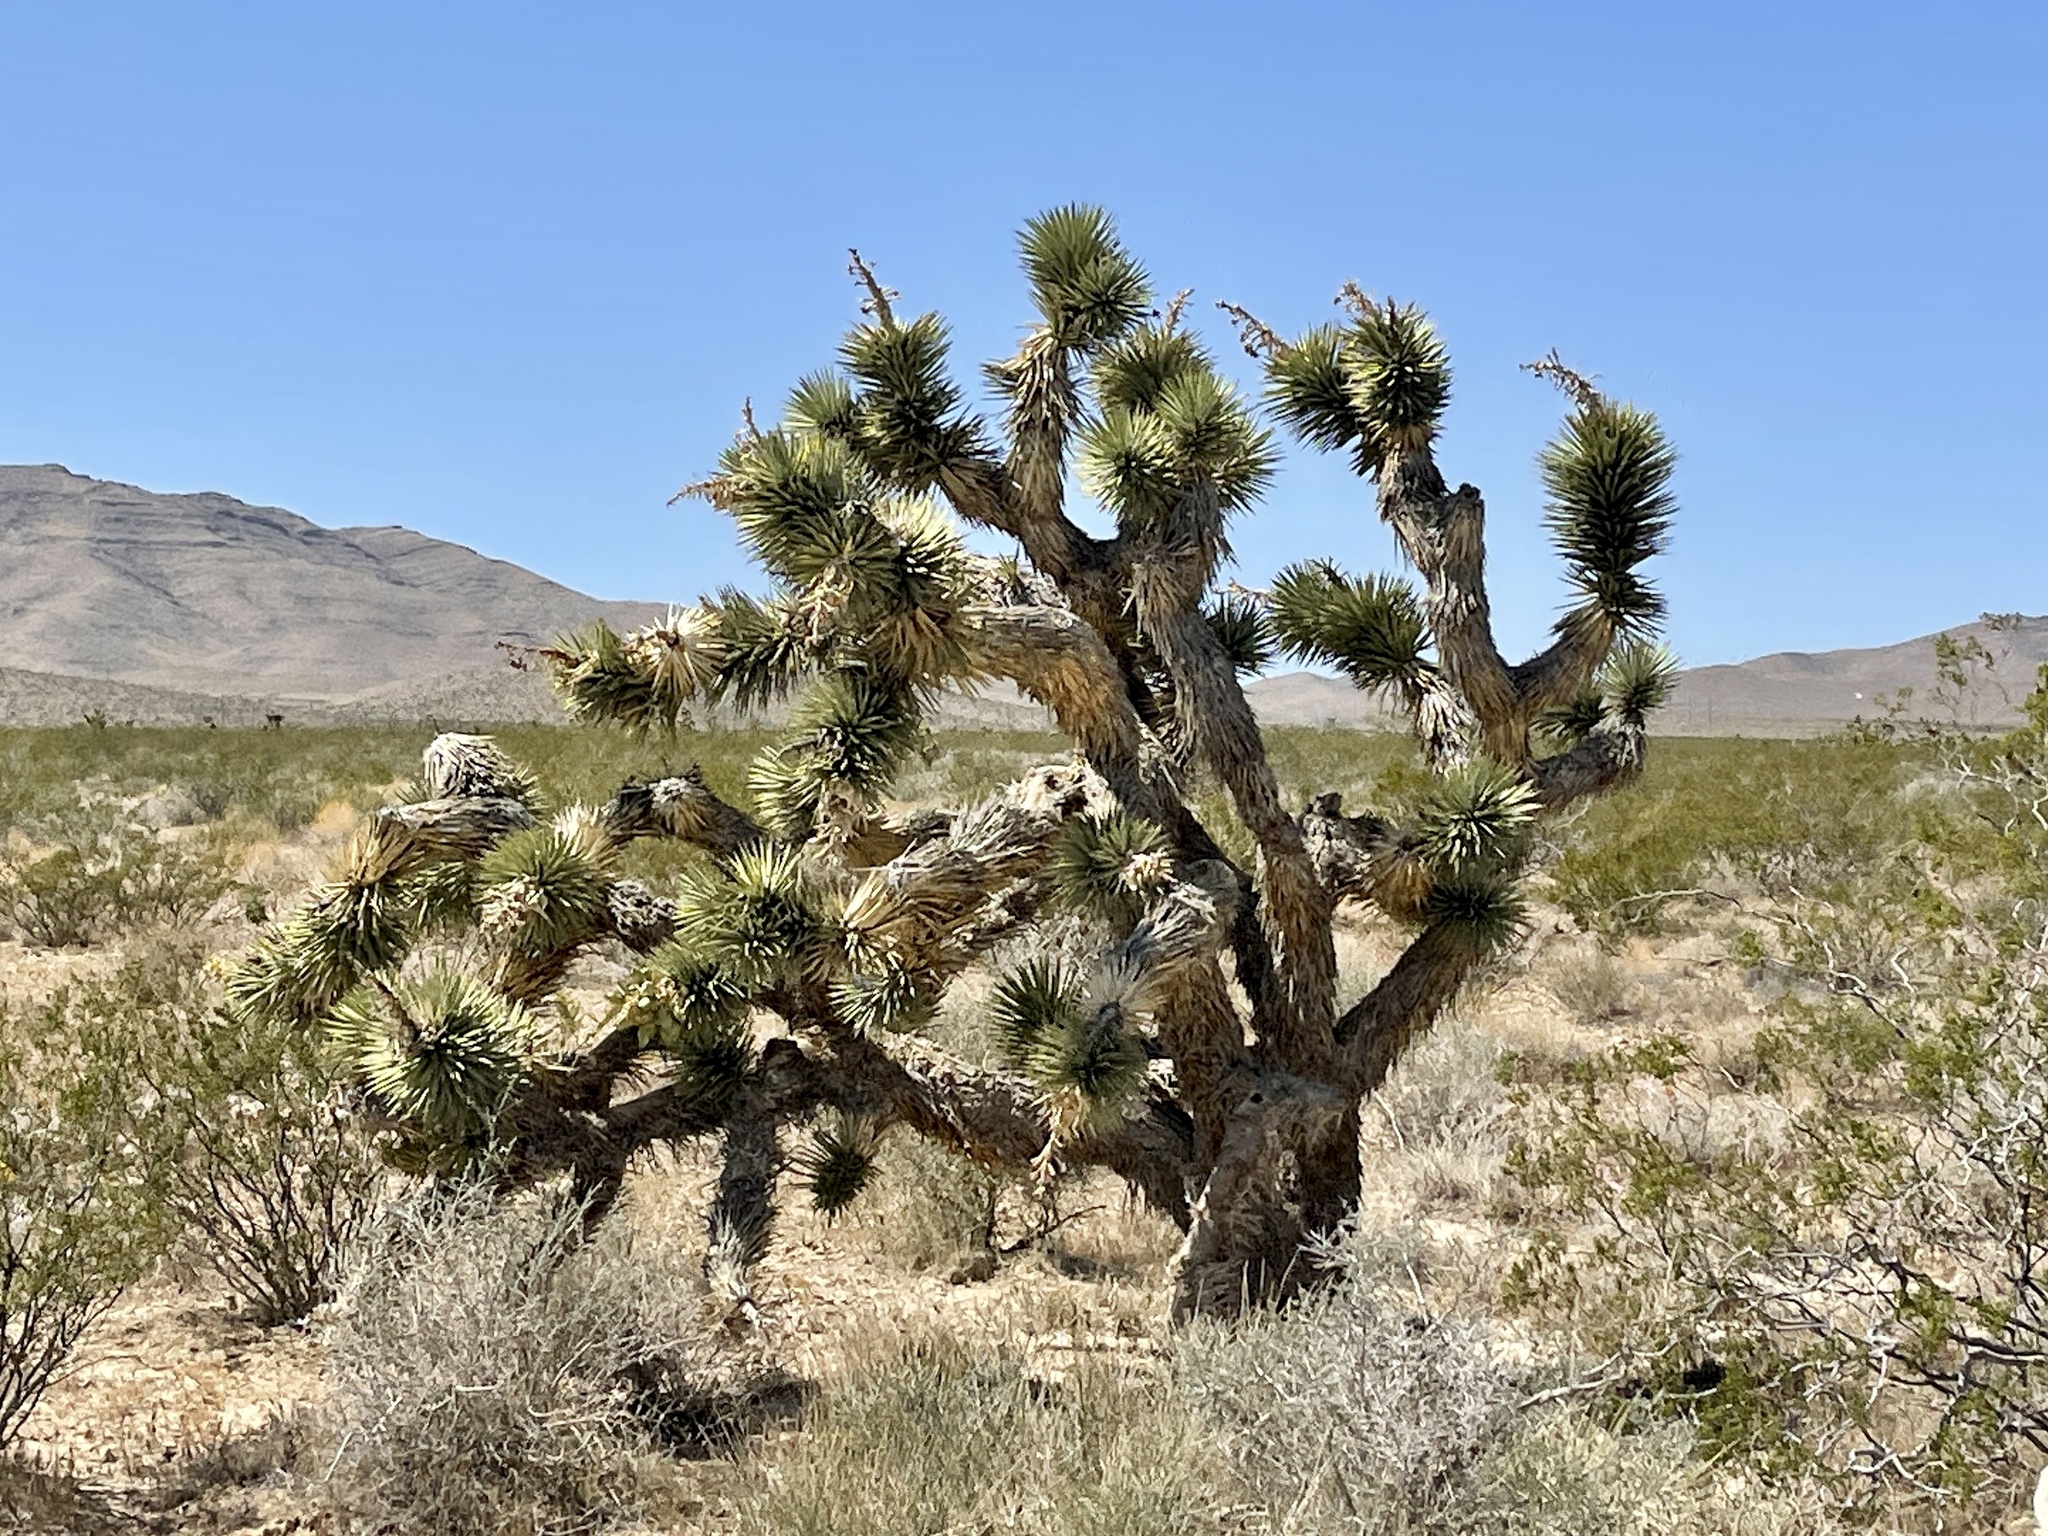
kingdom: Plantae
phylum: Tracheophyta
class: Liliopsida
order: Asparagales
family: Asparagaceae
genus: Yucca
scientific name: Yucca brevifolia
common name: Joshua tree
